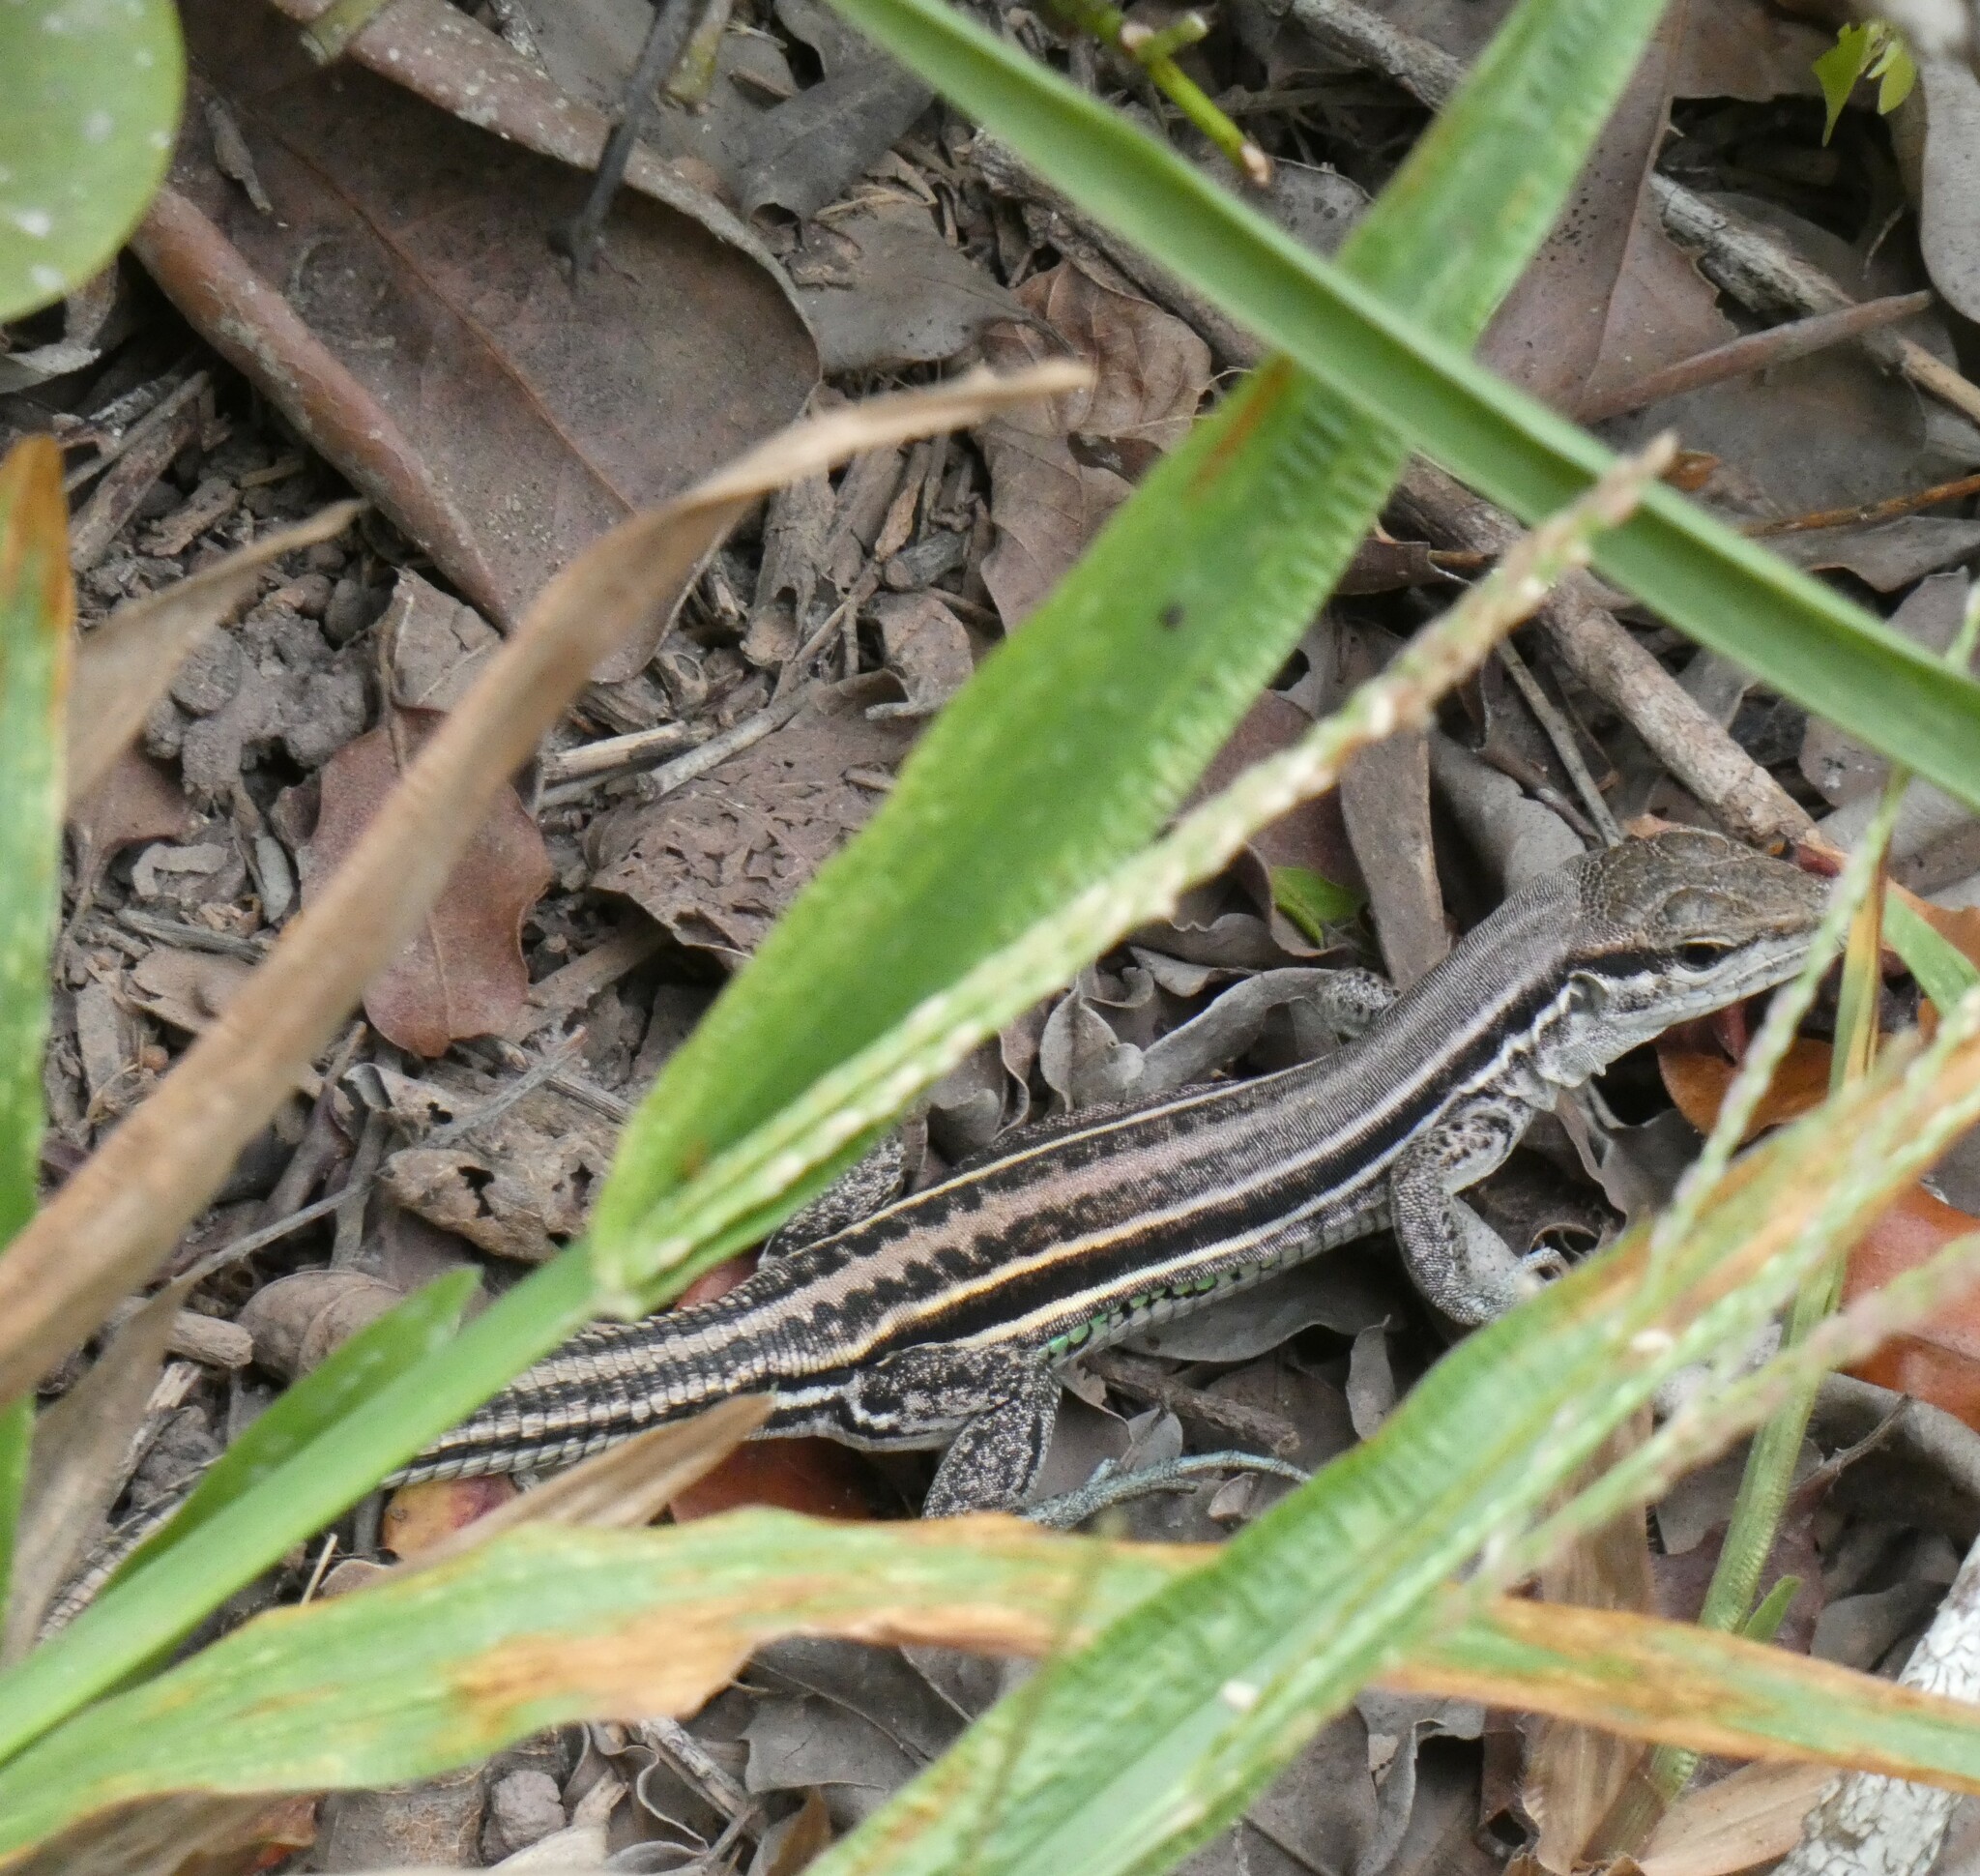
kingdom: Animalia
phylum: Chordata
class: Squamata
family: Teiidae
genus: Ameivula
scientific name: Ameivula nativo
